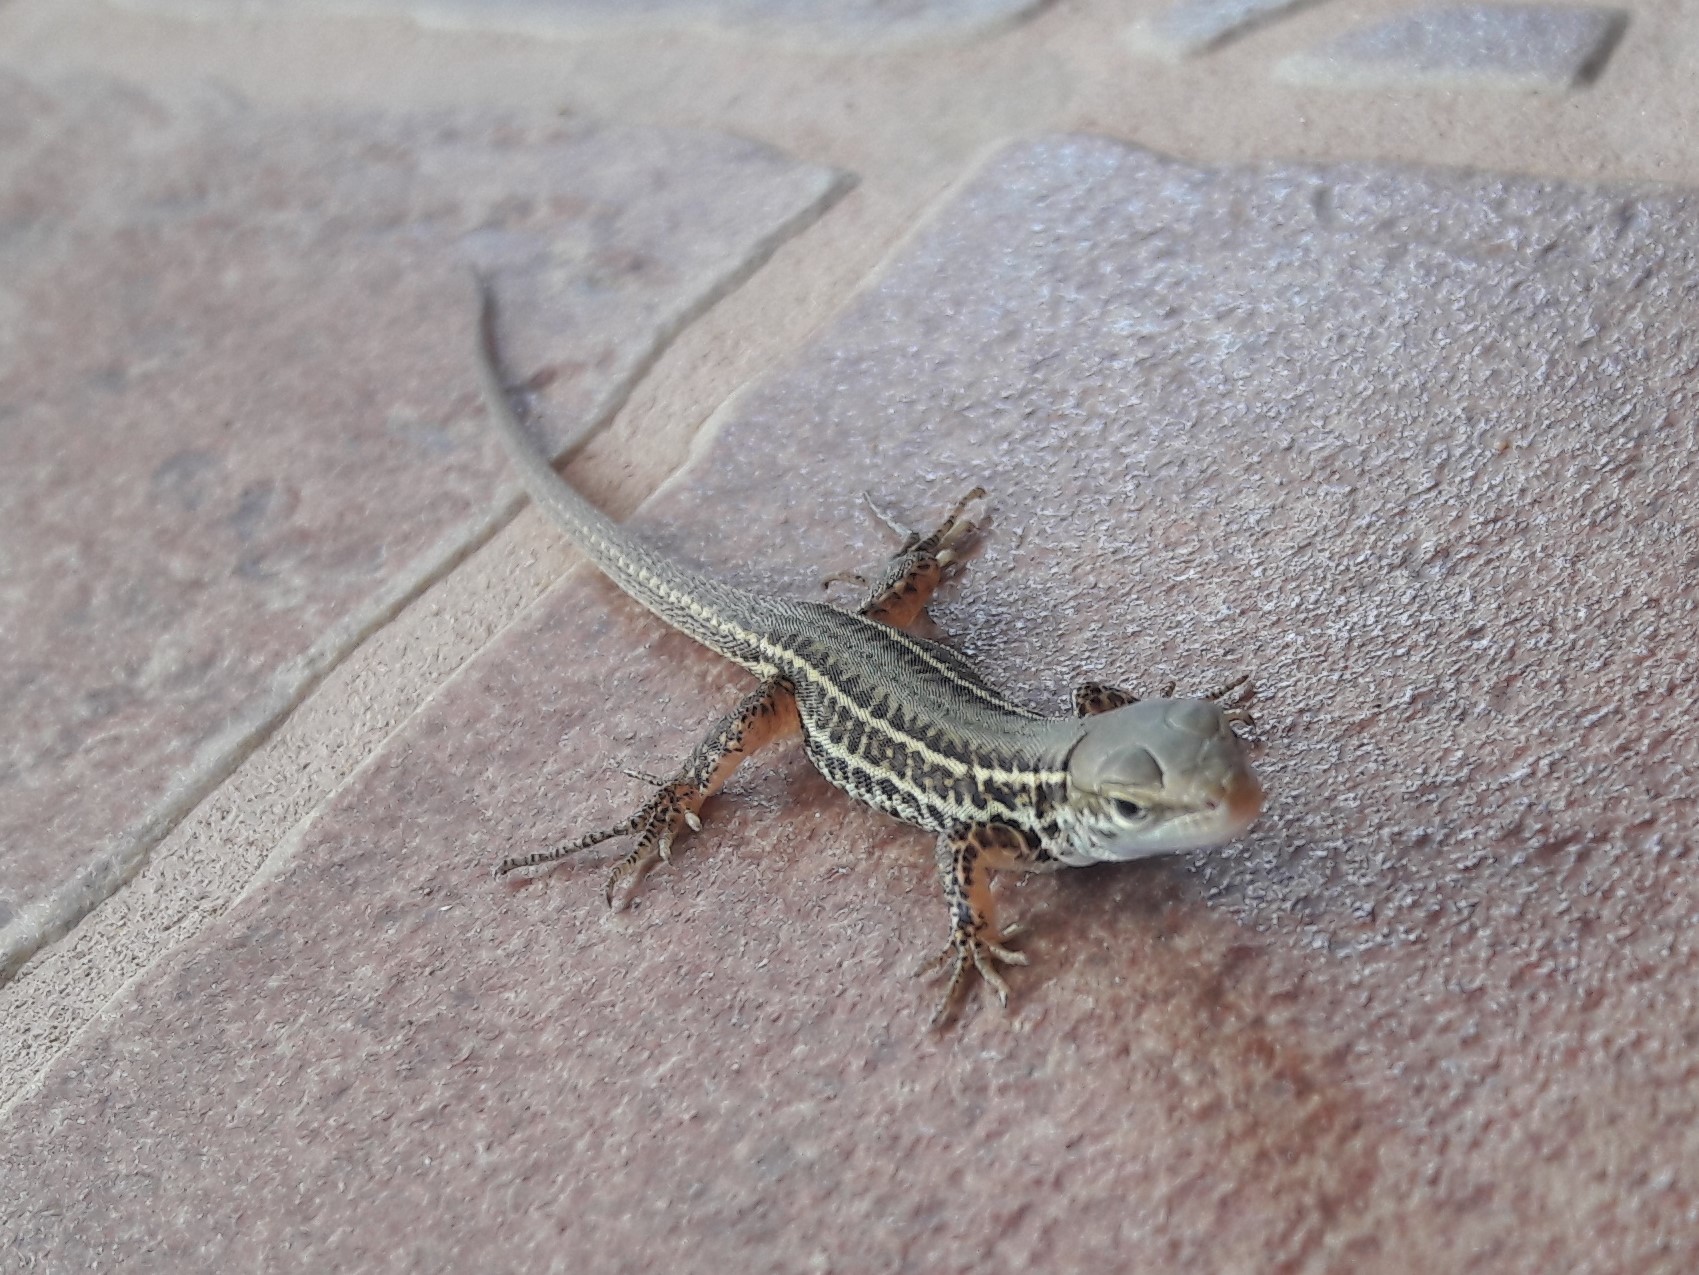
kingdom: Animalia
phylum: Chordata
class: Squamata
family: Lacertidae
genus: Podarcis
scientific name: Podarcis ionicus
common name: Ionian wall lizard
